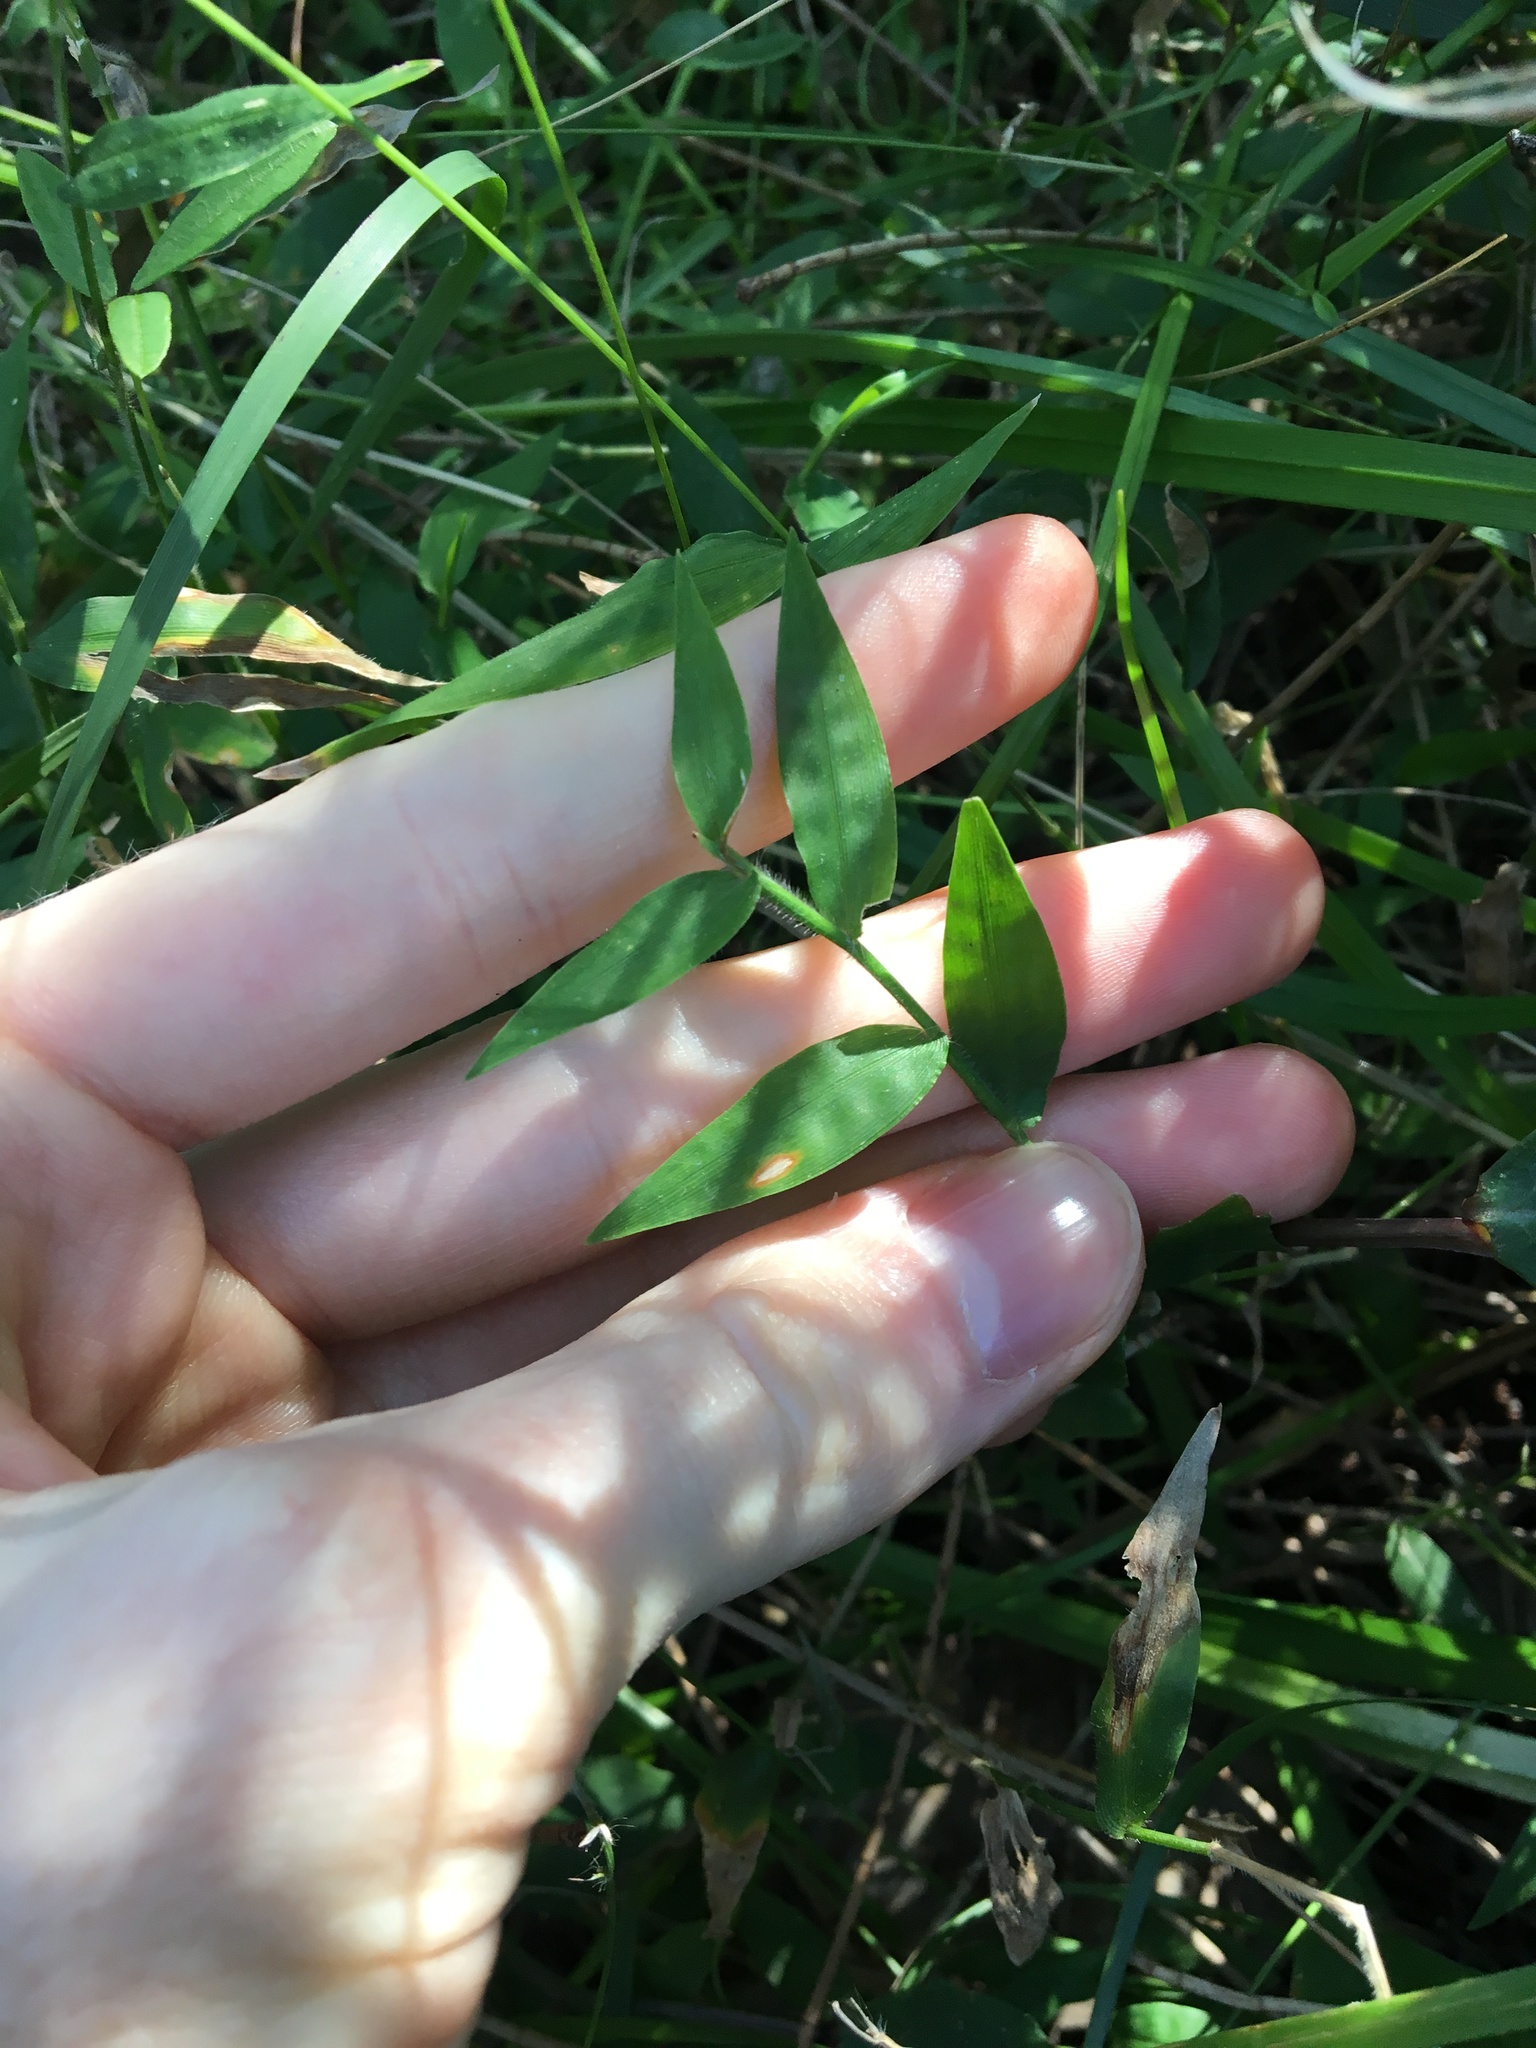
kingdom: Plantae
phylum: Tracheophyta
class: Liliopsida
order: Poales
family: Poaceae
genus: Oplismenus
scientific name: Oplismenus hirtellus
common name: Basketgrass
